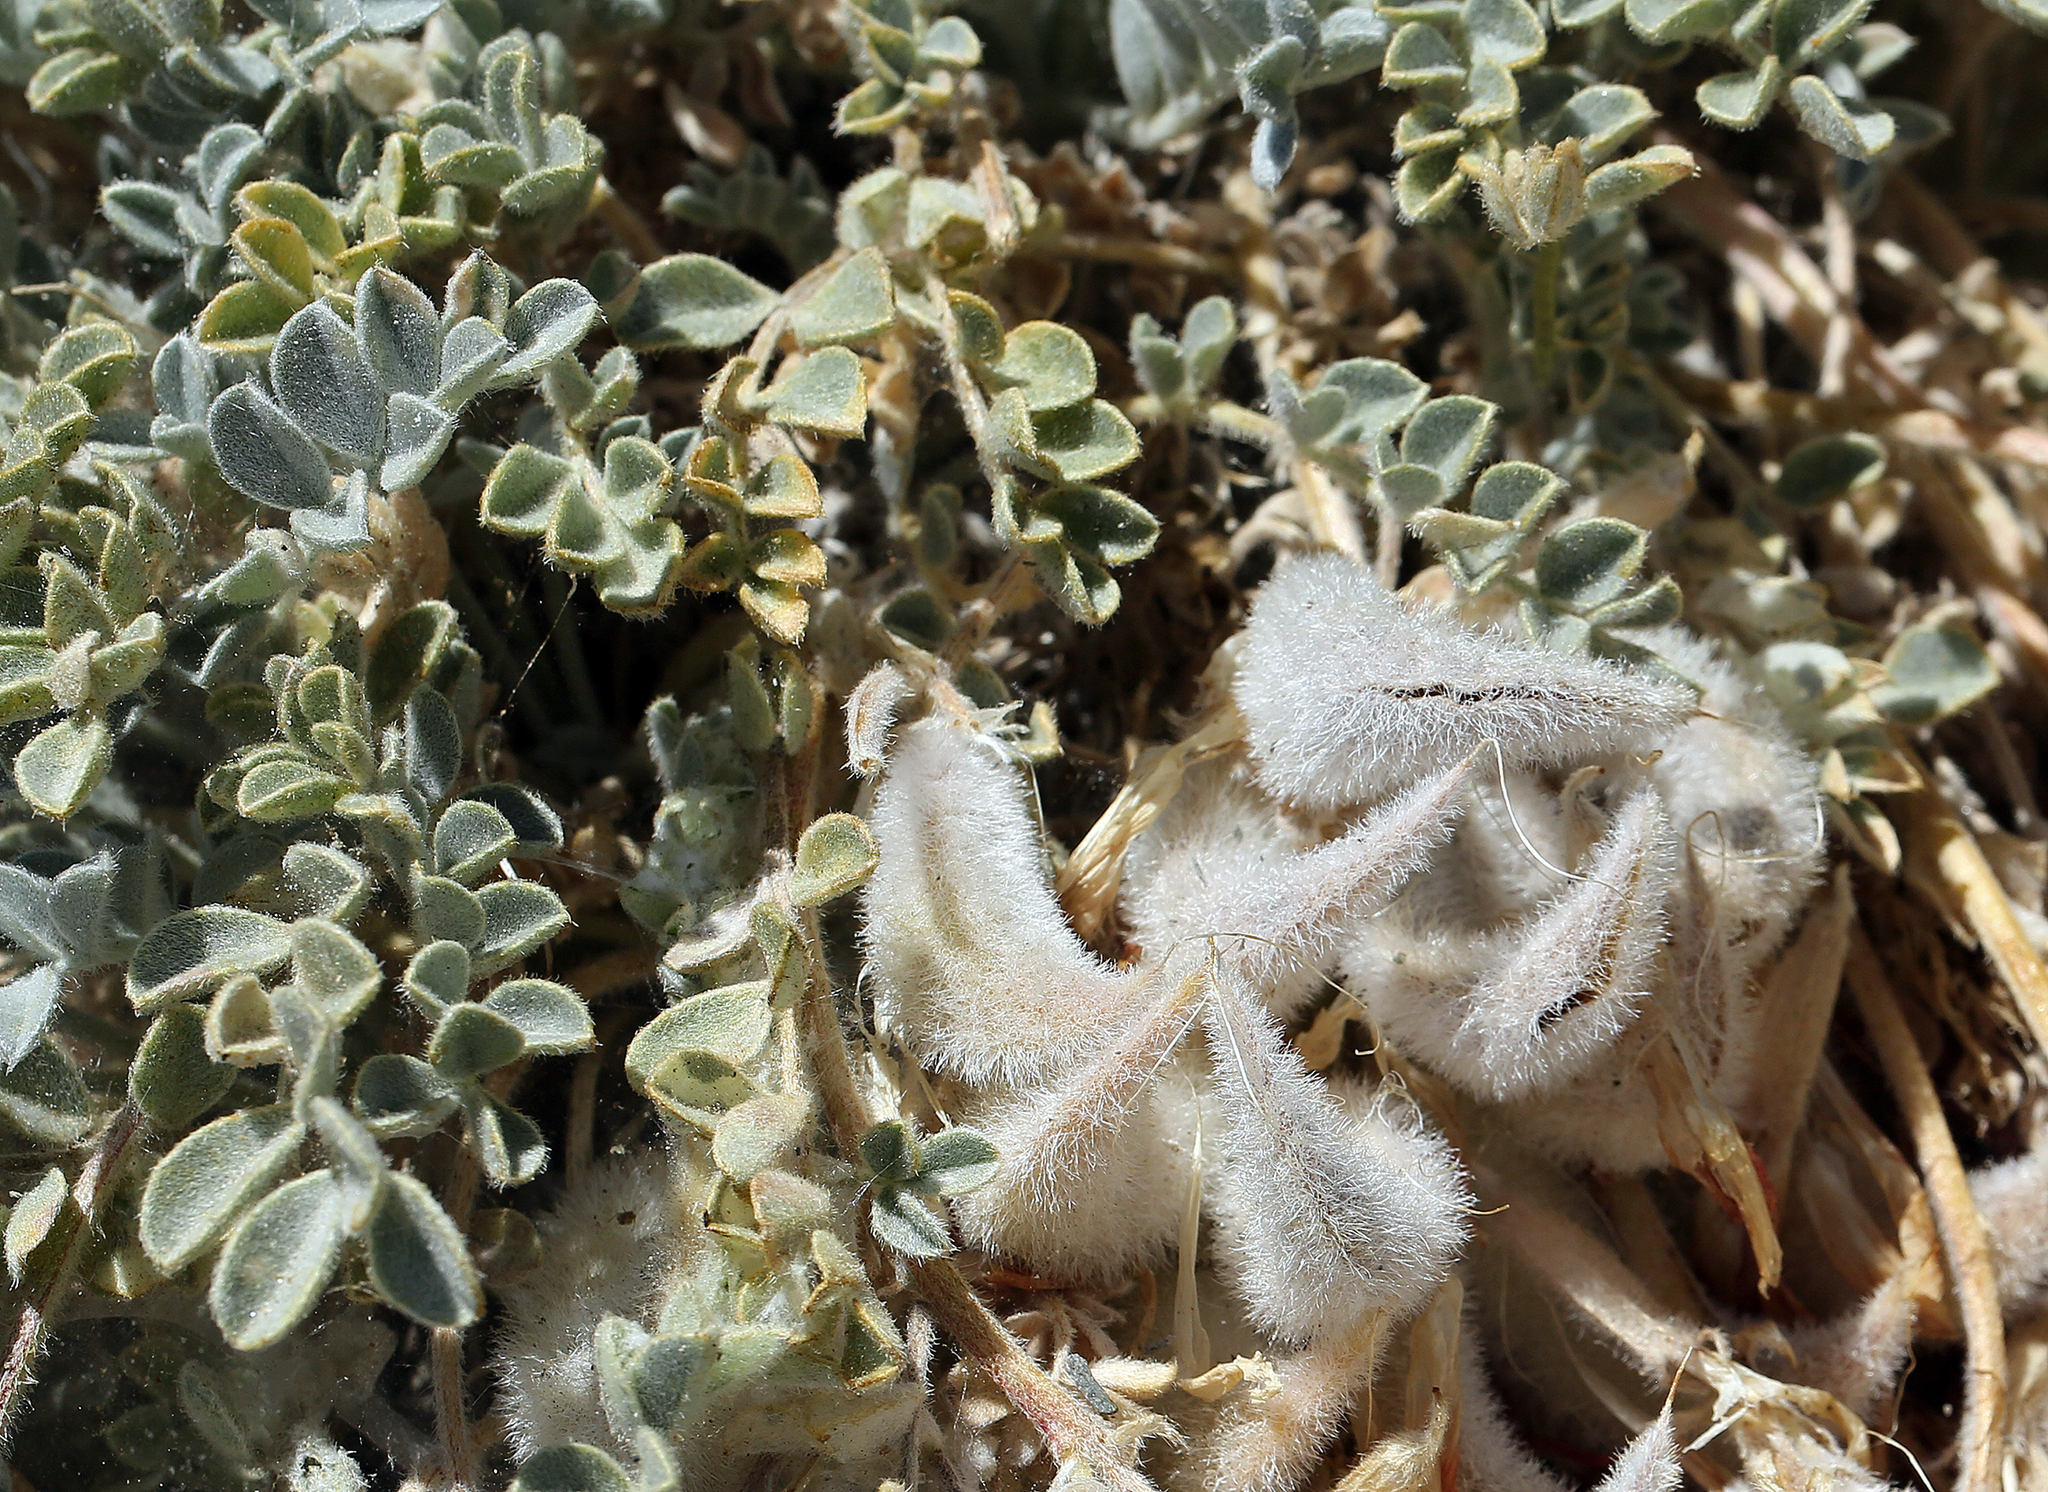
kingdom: Plantae
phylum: Tracheophyta
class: Magnoliopsida
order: Fabales
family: Fabaceae
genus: Astragalus
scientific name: Astragalus coccineus
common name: Scarlet milk-vetch
